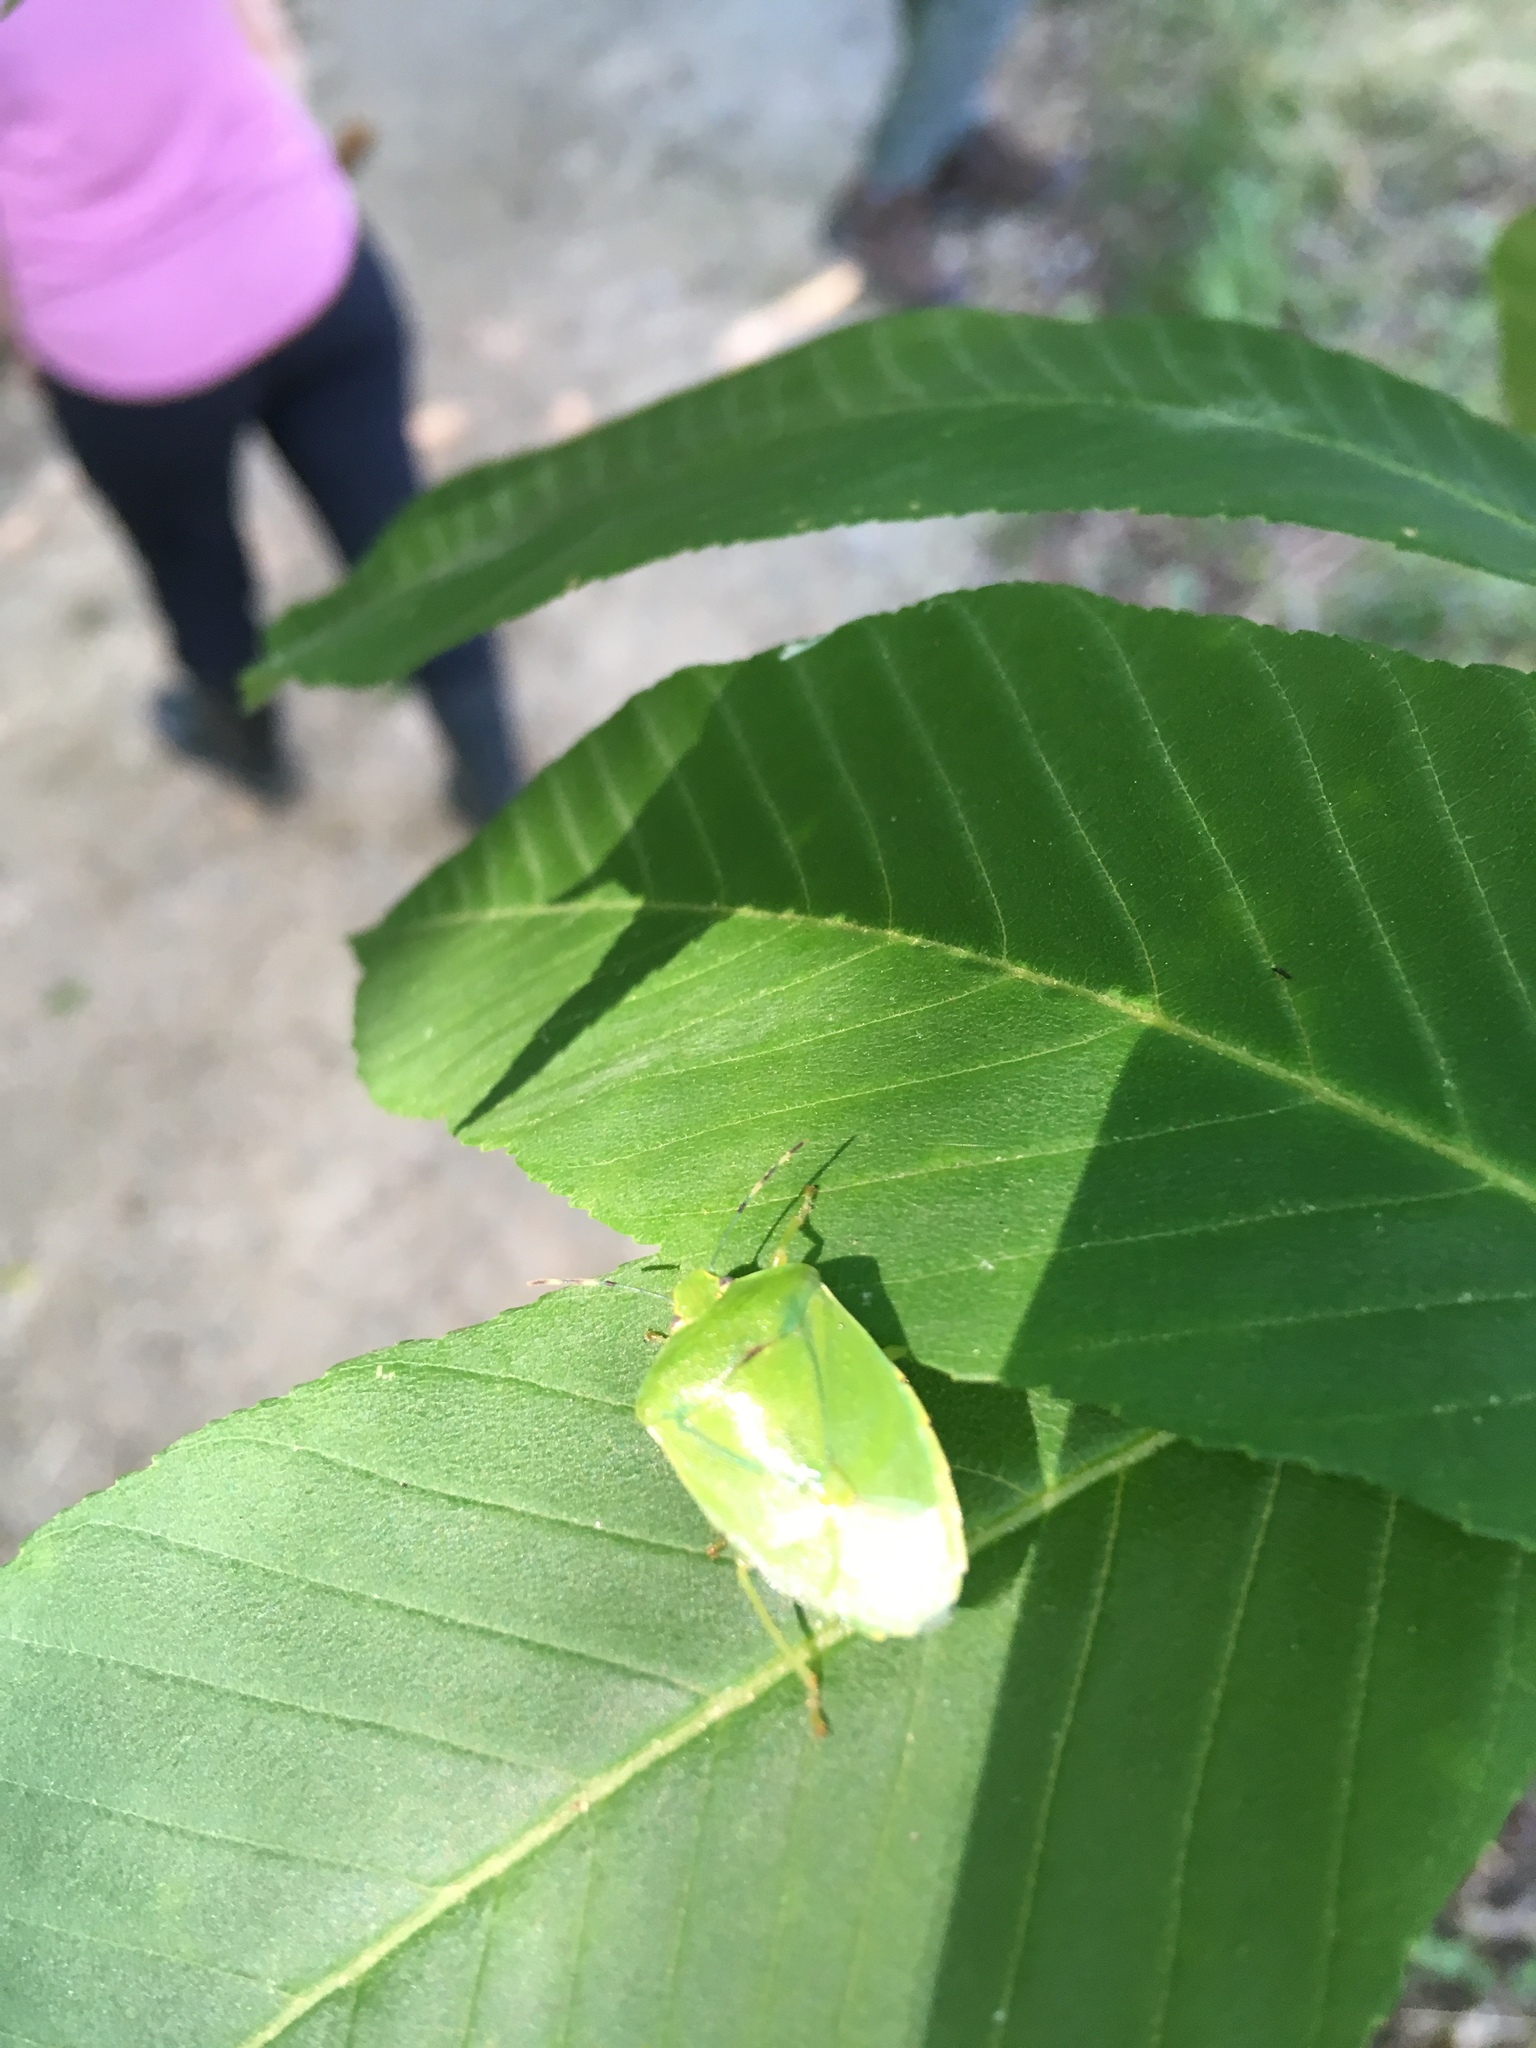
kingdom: Animalia
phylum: Arthropoda
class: Insecta
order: Hemiptera
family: Pentatomidae
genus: Chinavia
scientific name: Chinavia hilaris
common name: Green stink bug
